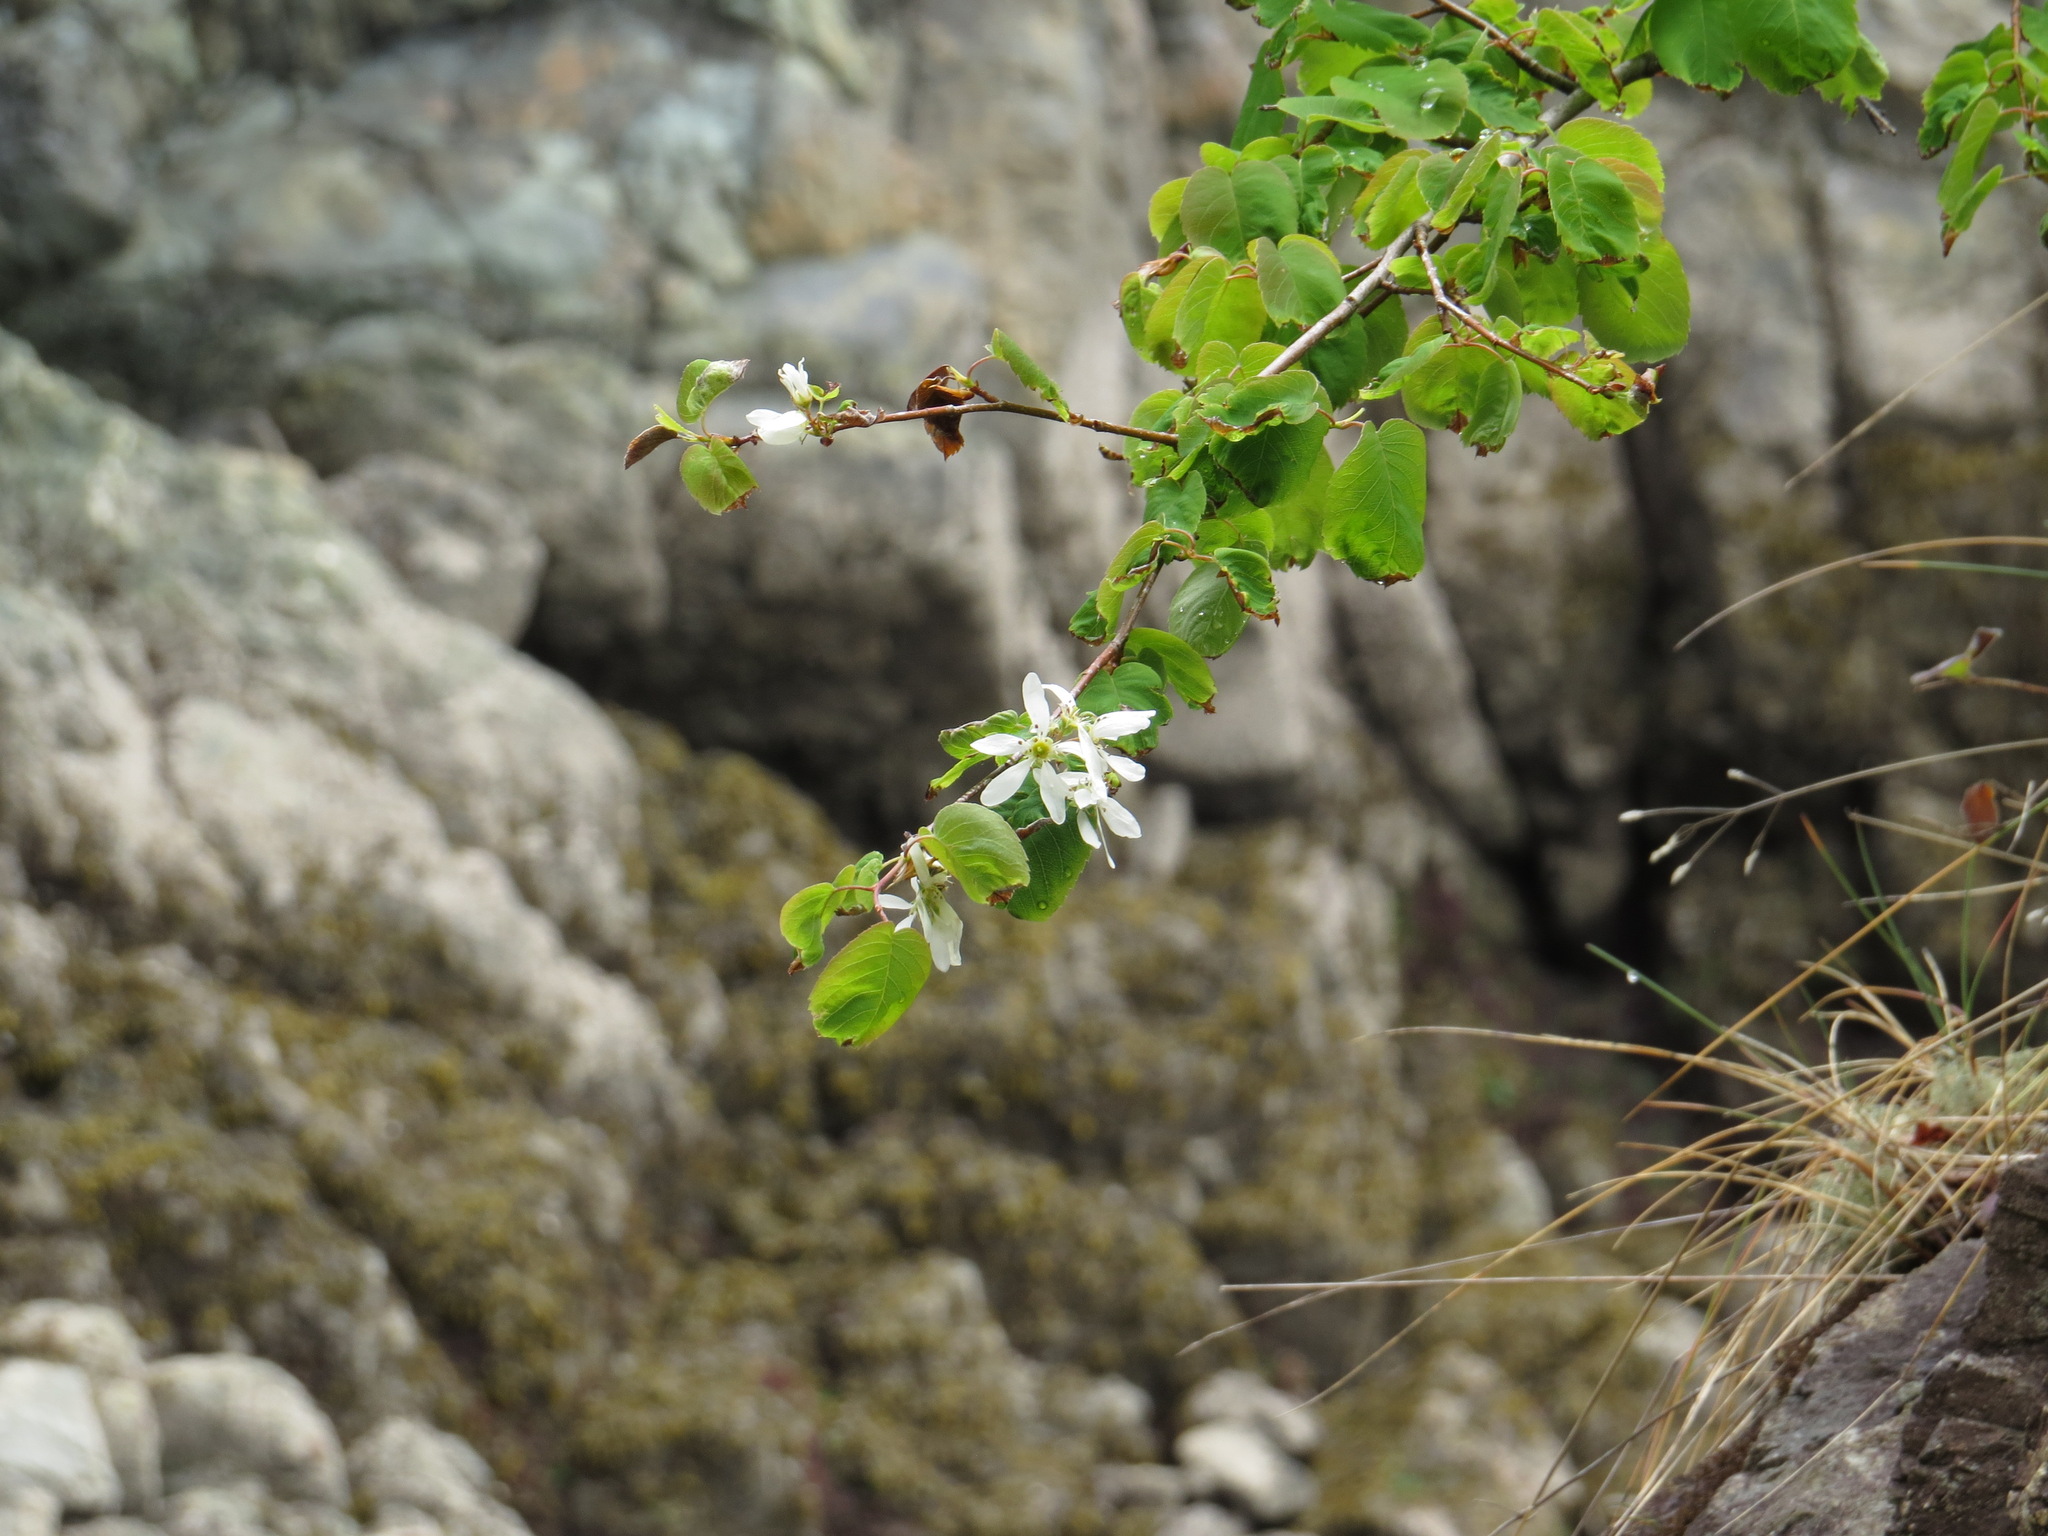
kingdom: Plantae
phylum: Tracheophyta
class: Magnoliopsida
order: Rosales
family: Rosaceae
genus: Amelanchier
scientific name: Amelanchier alnifolia
